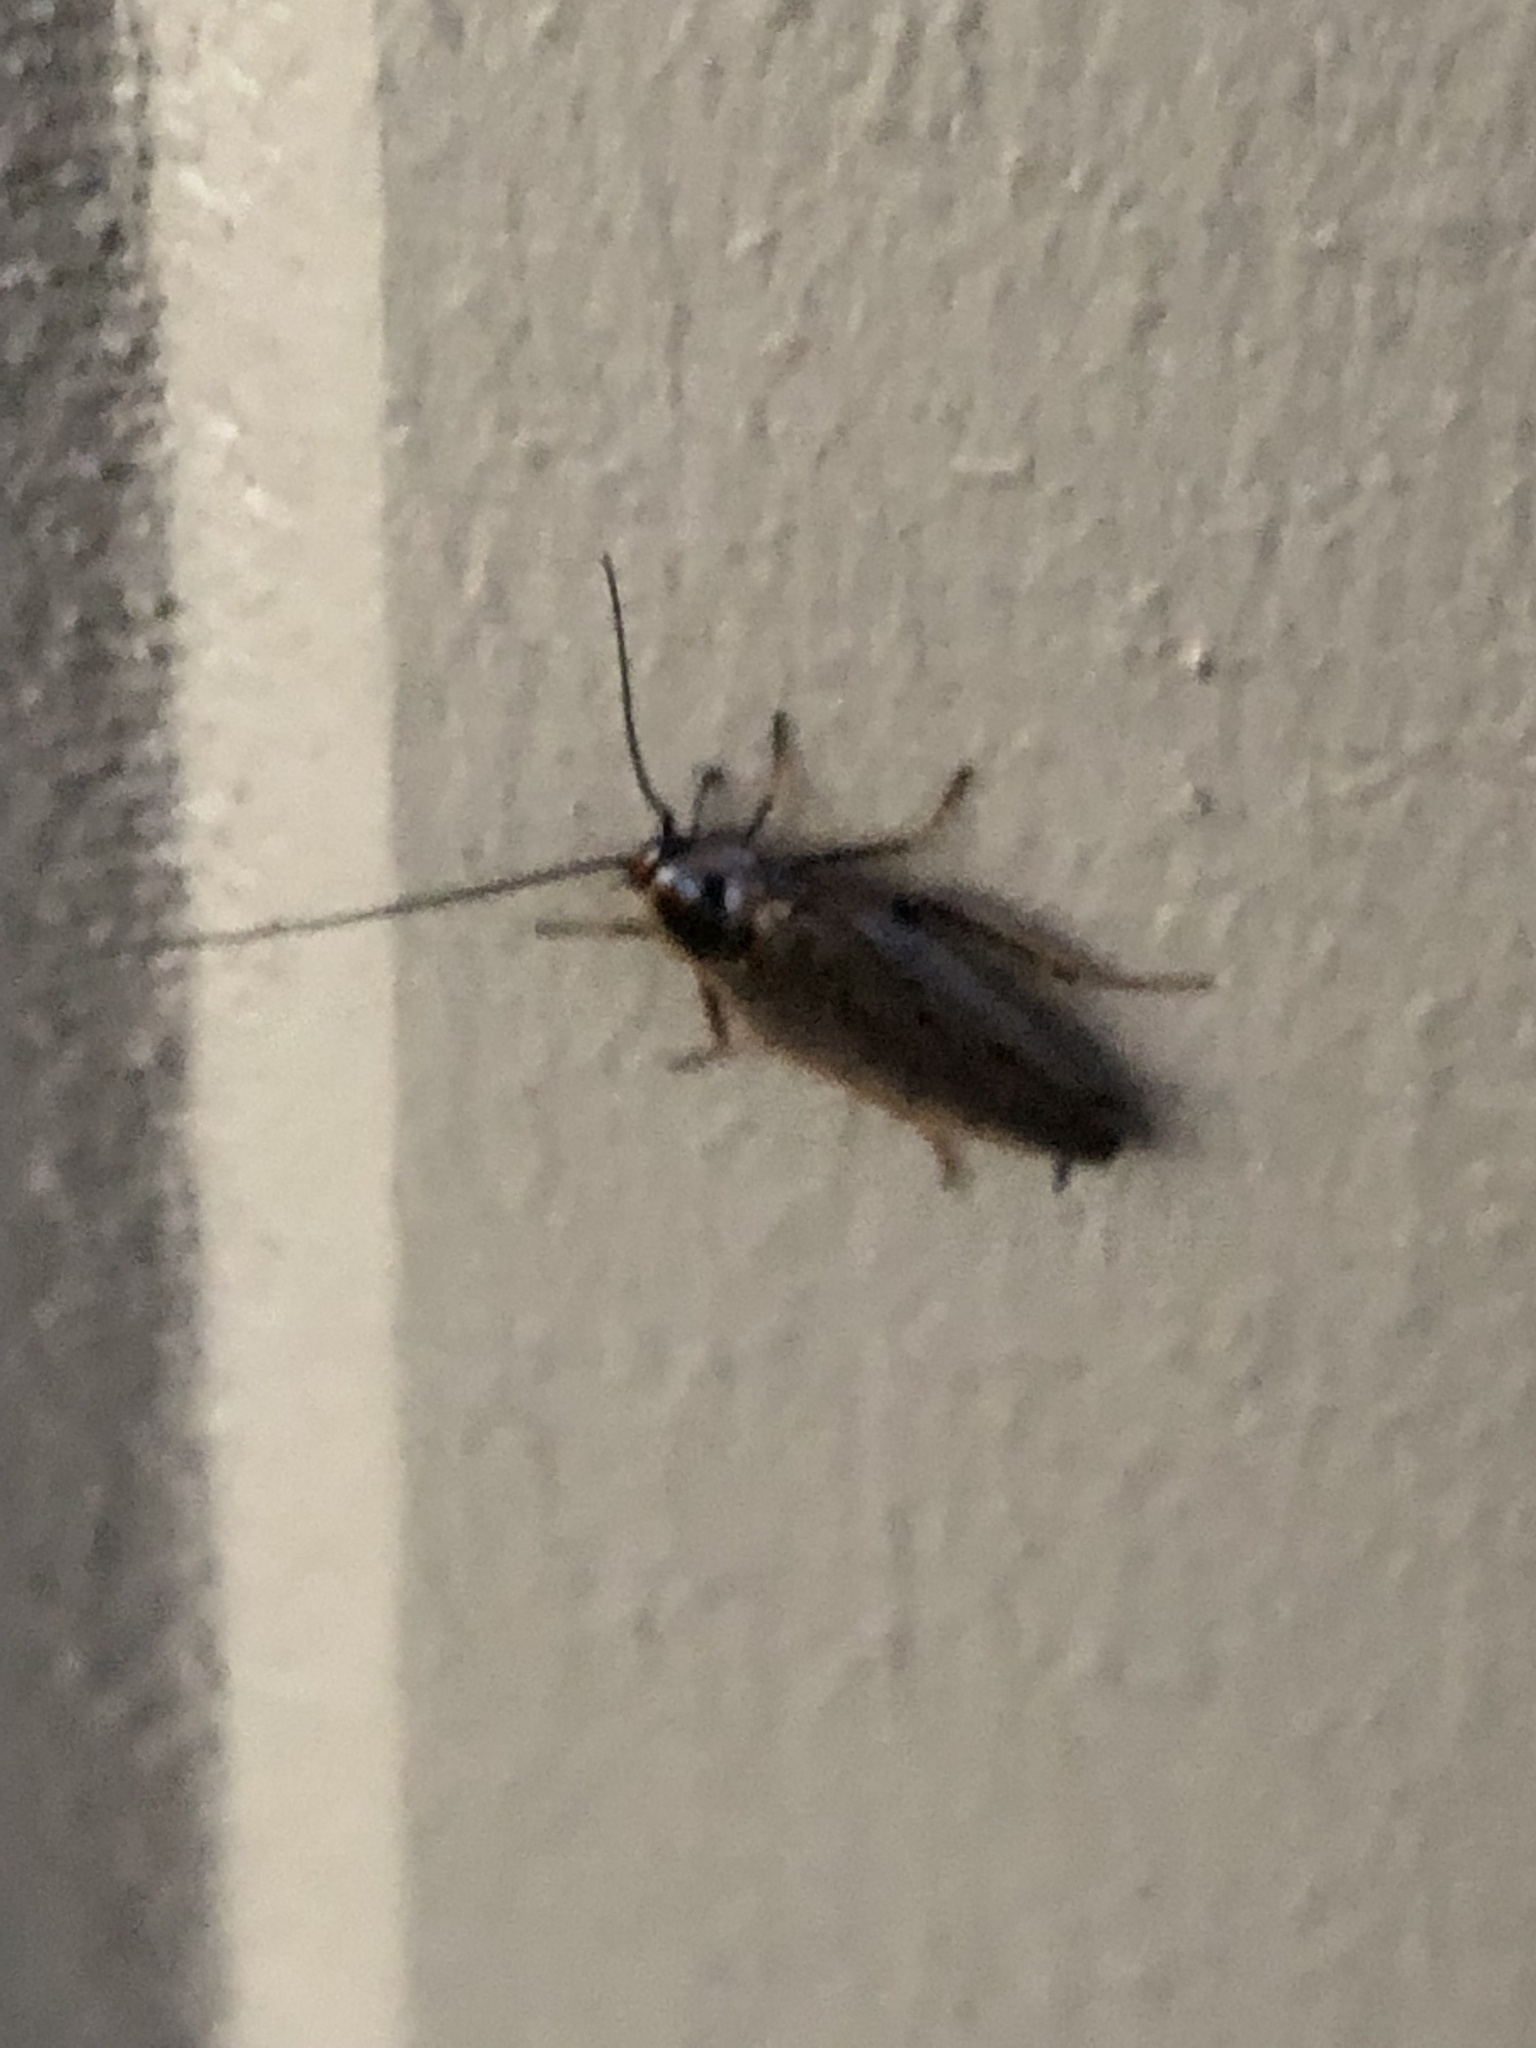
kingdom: Animalia
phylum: Arthropoda
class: Insecta
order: Blattodea
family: Ectobiidae
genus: Ectobius
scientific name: Ectobius lapponicus
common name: Dusky cockroach
